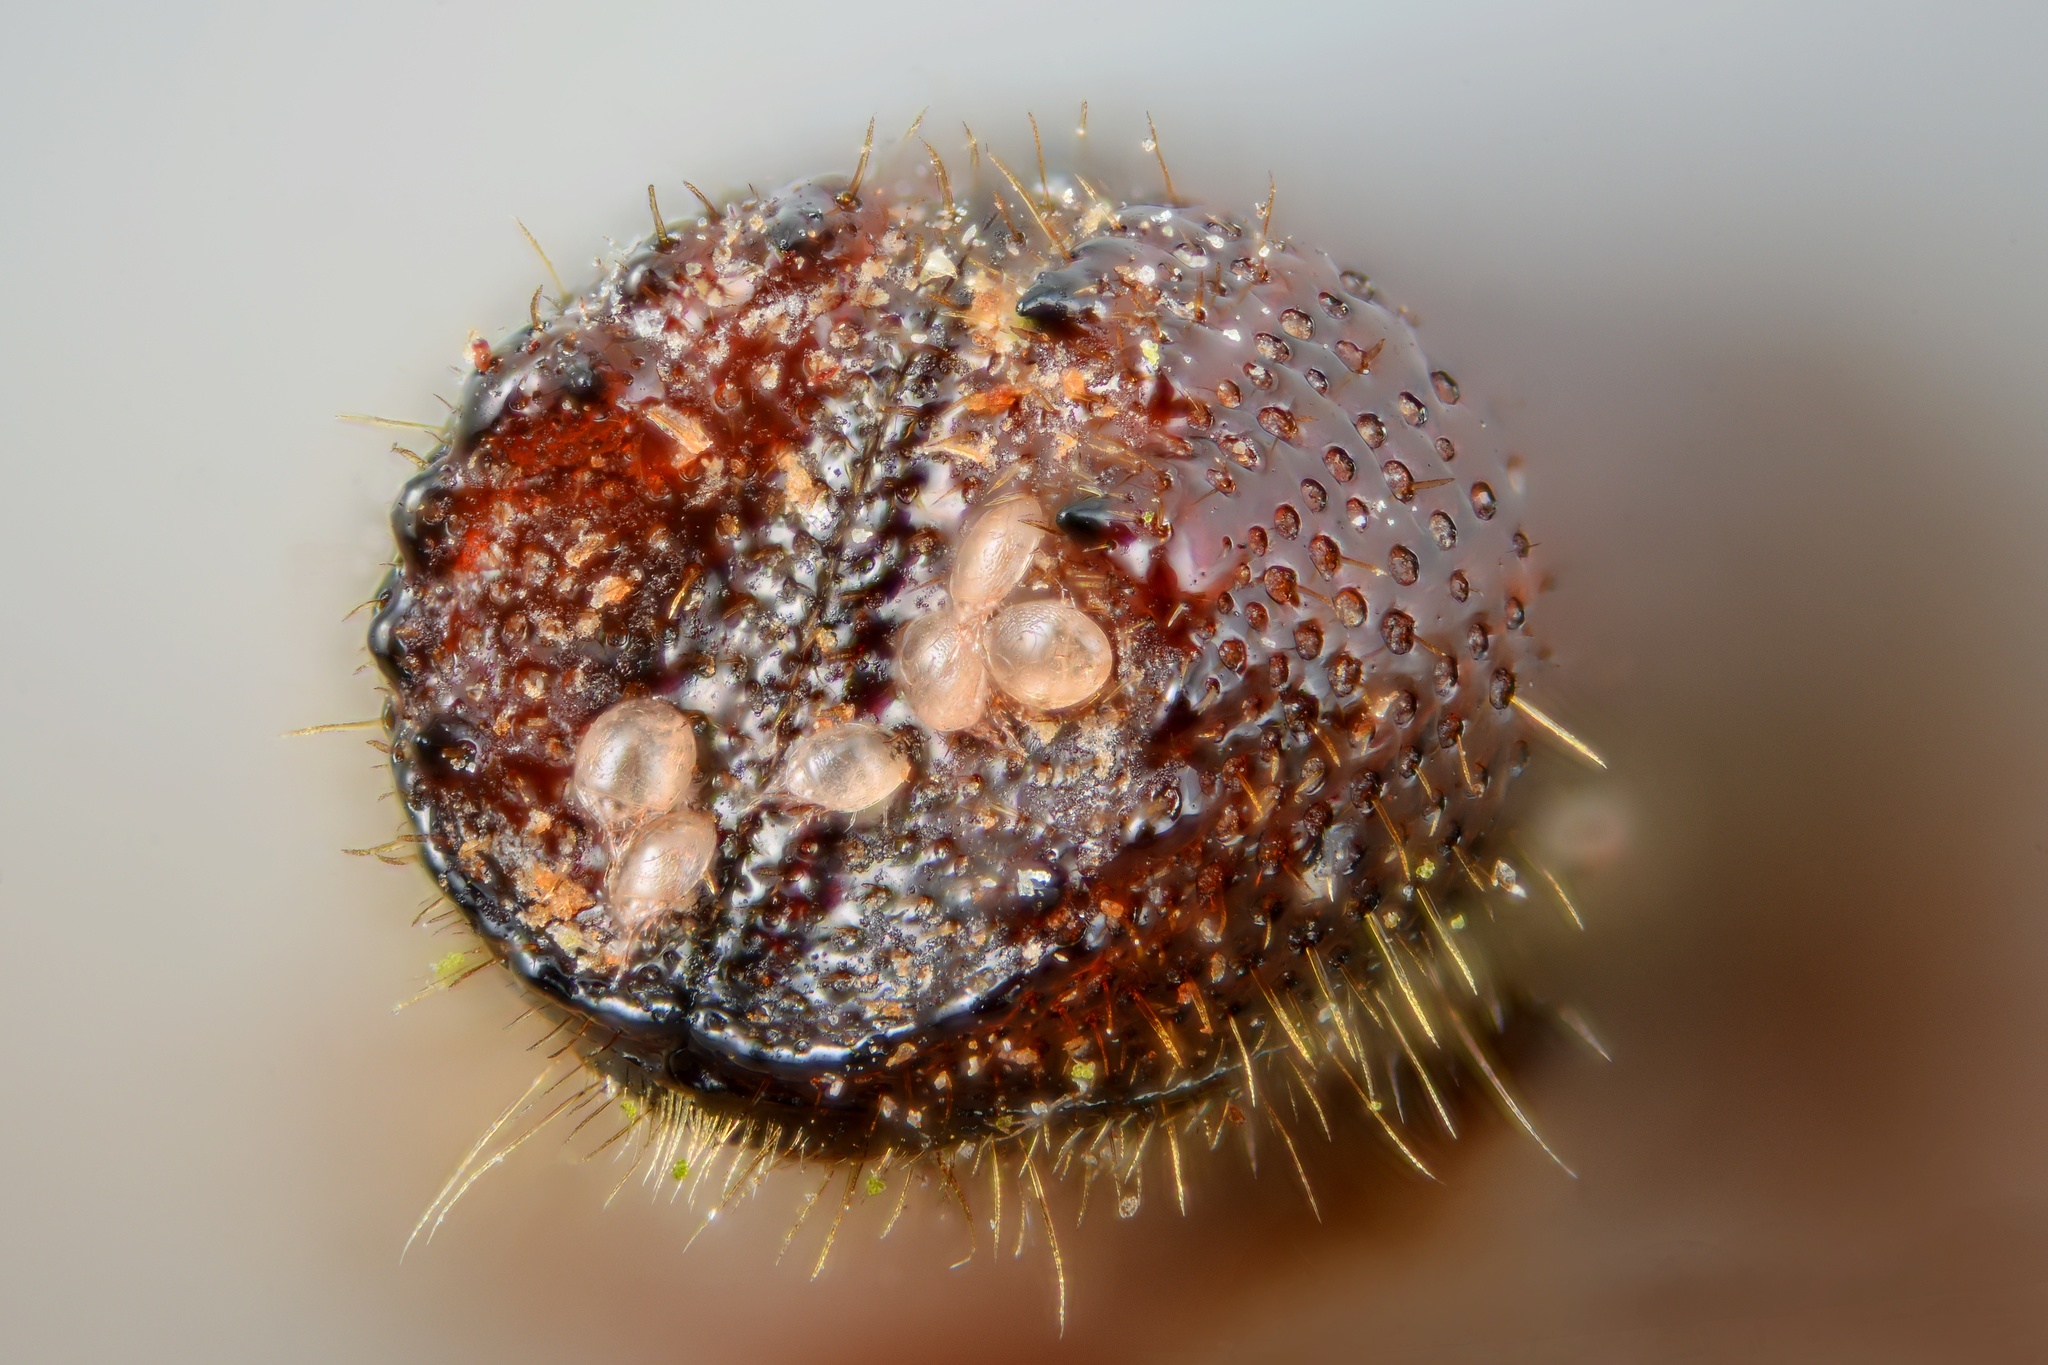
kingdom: Animalia
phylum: Arthropoda
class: Insecta
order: Coleoptera
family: Curculionidae
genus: Orthotomicus
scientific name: Orthotomicus laricis
